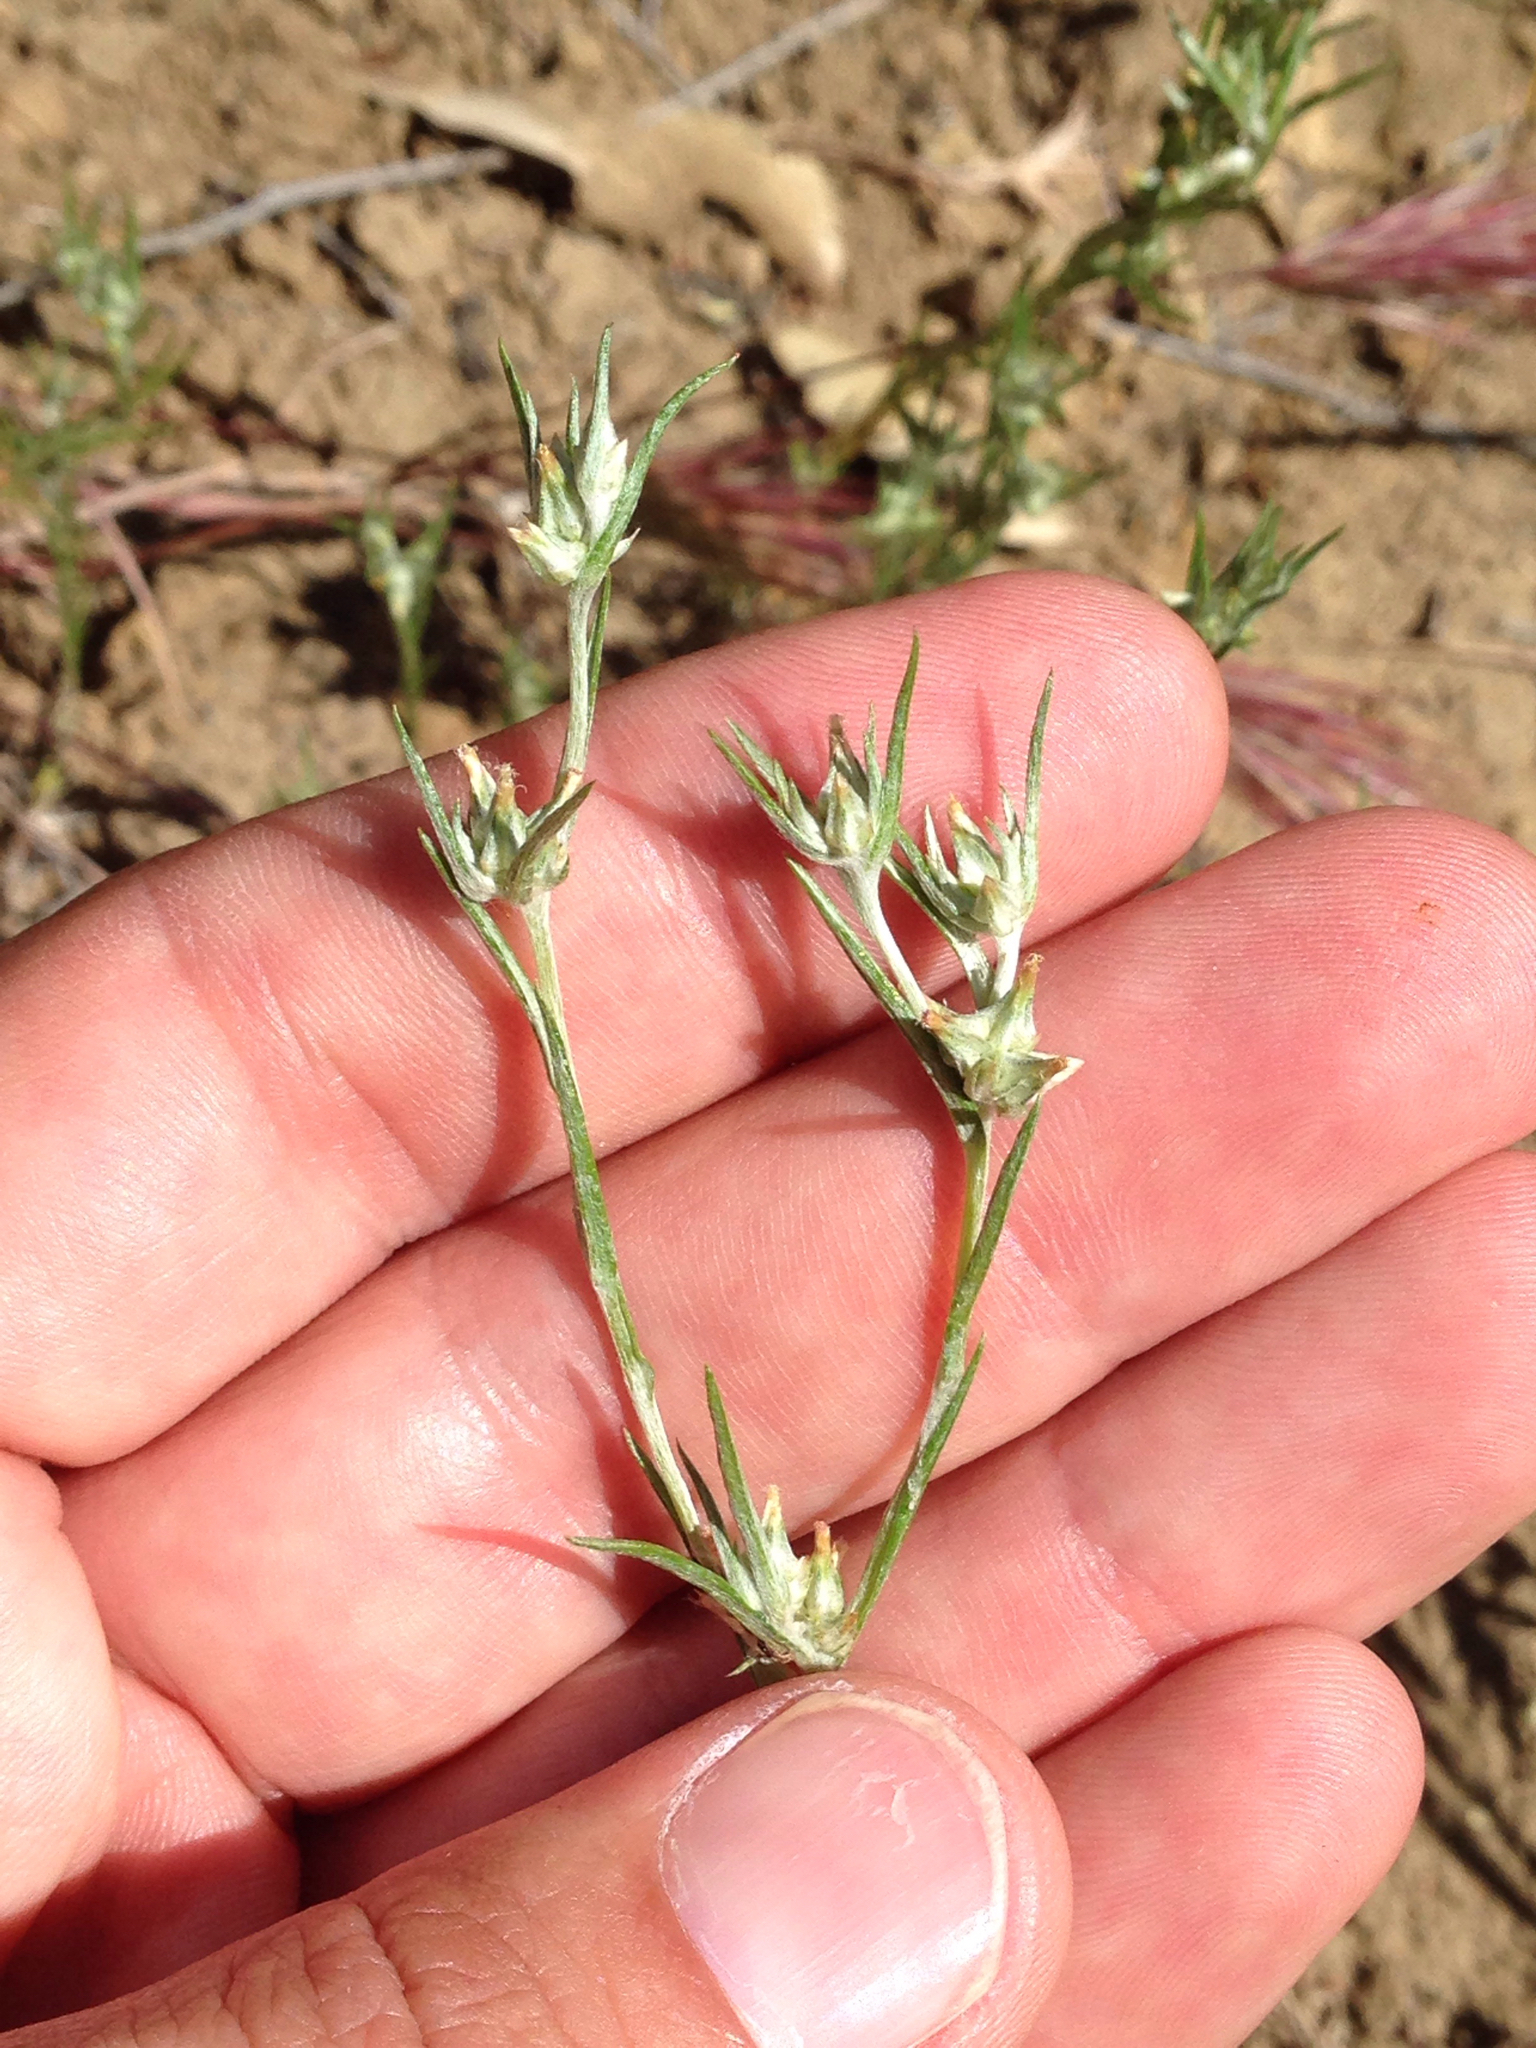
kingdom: Plantae
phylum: Tracheophyta
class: Magnoliopsida
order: Asterales
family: Asteraceae
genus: Logfia
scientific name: Logfia gallica
